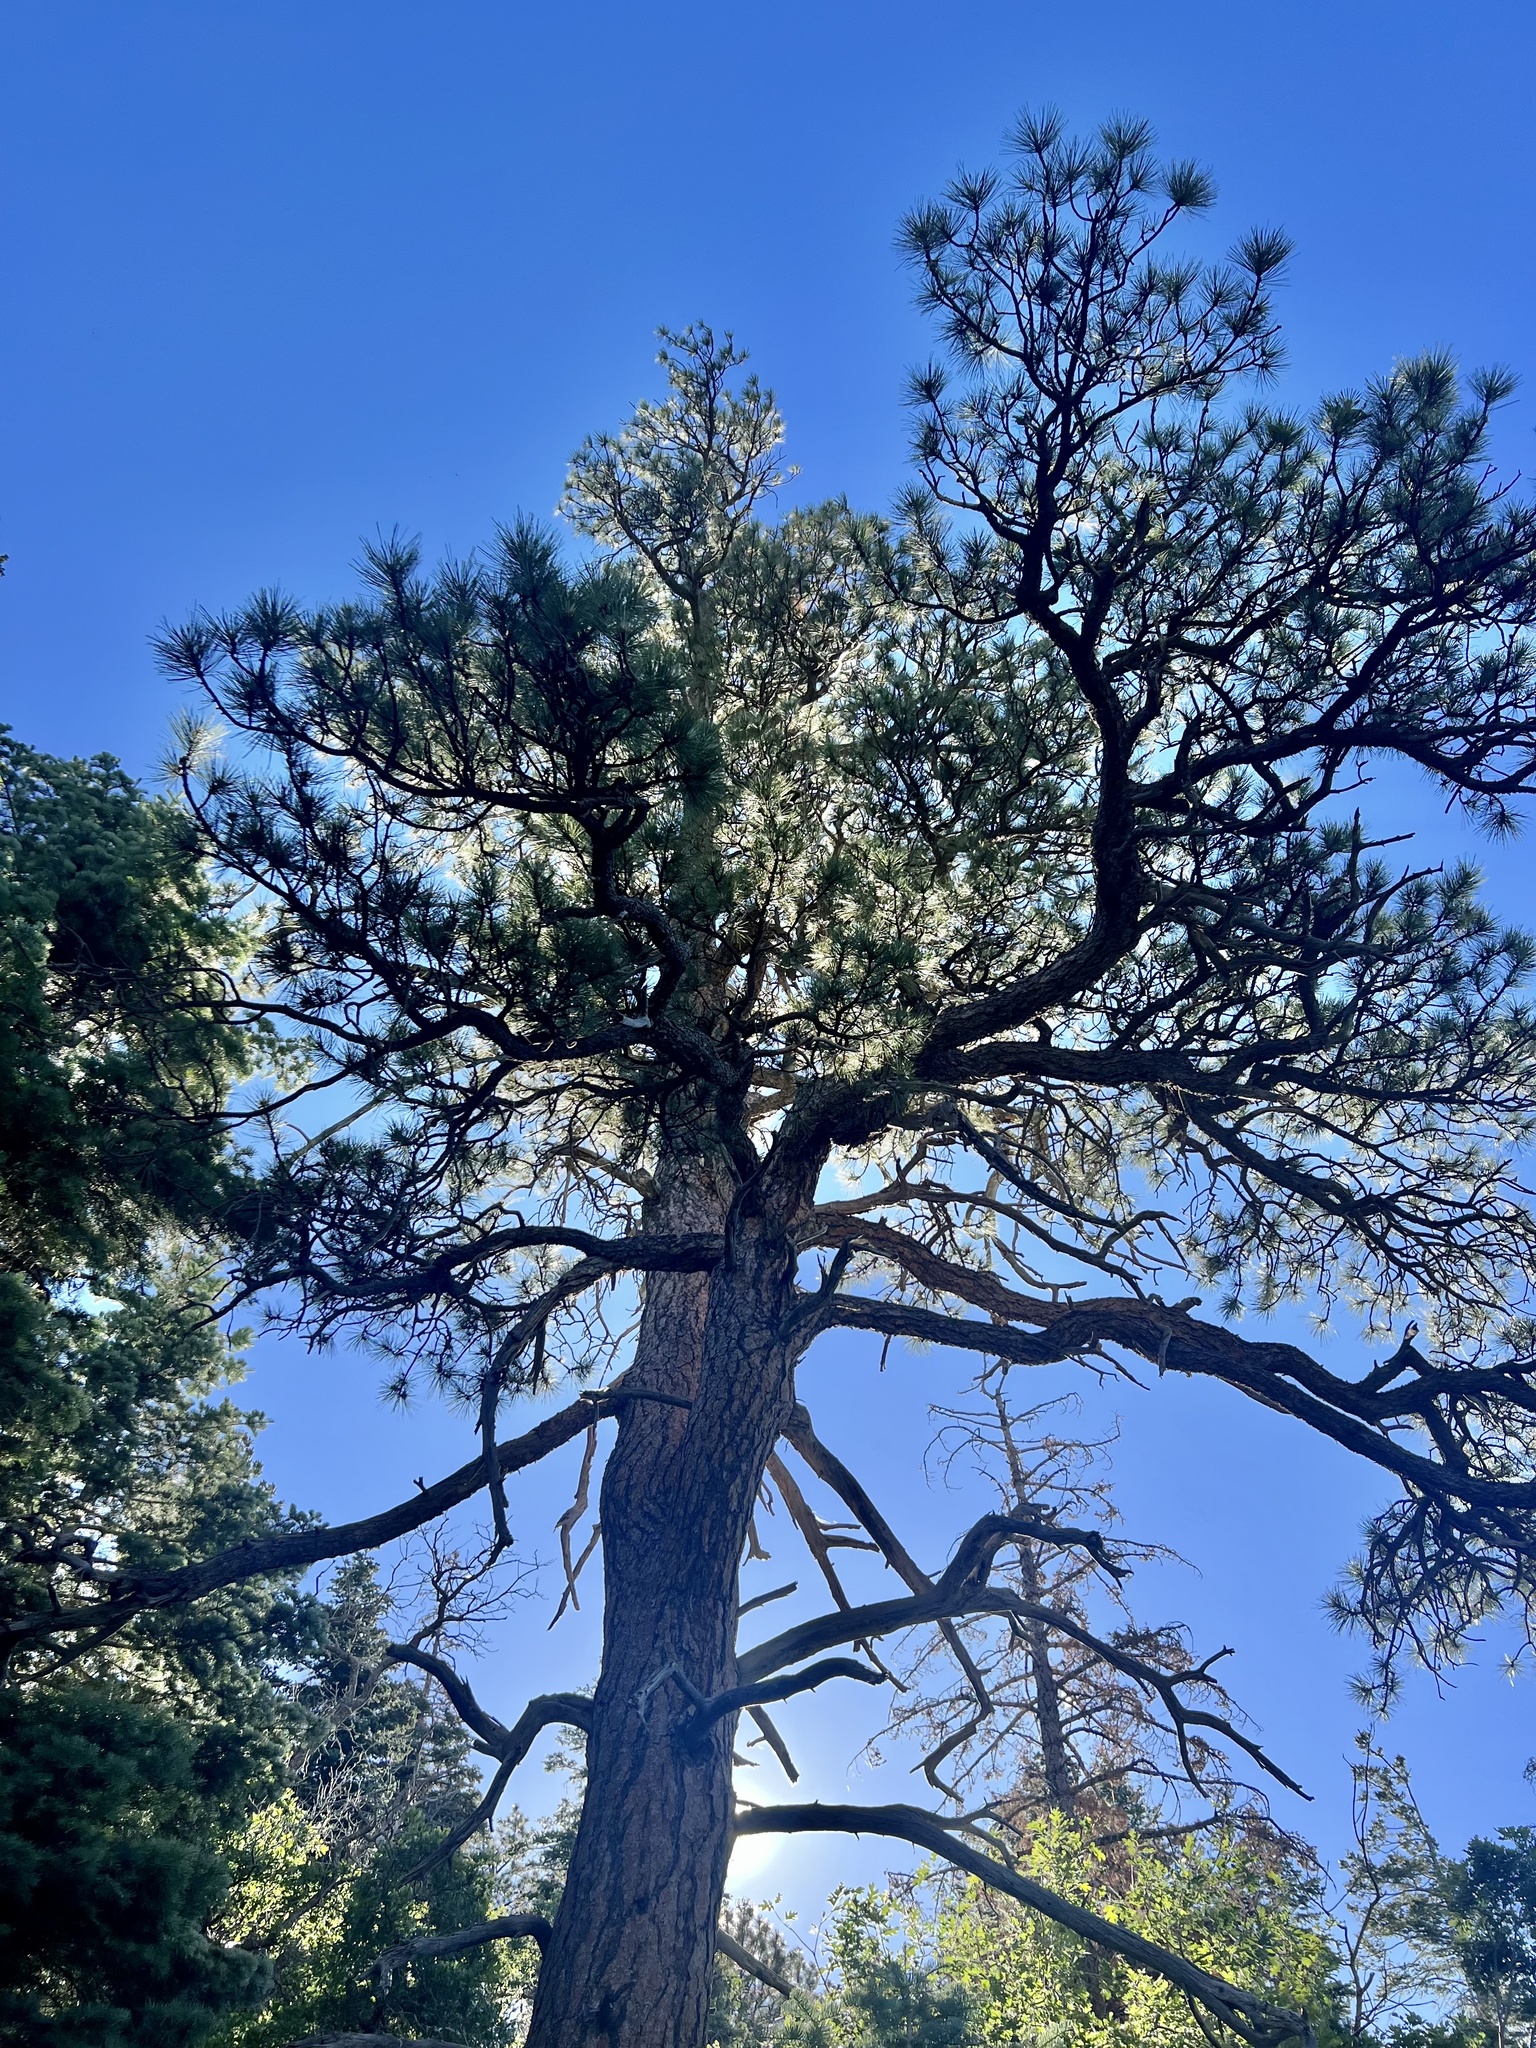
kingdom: Plantae
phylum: Tracheophyta
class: Pinopsida
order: Pinales
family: Pinaceae
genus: Pinus
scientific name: Pinus ponderosa
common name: Western yellow-pine
